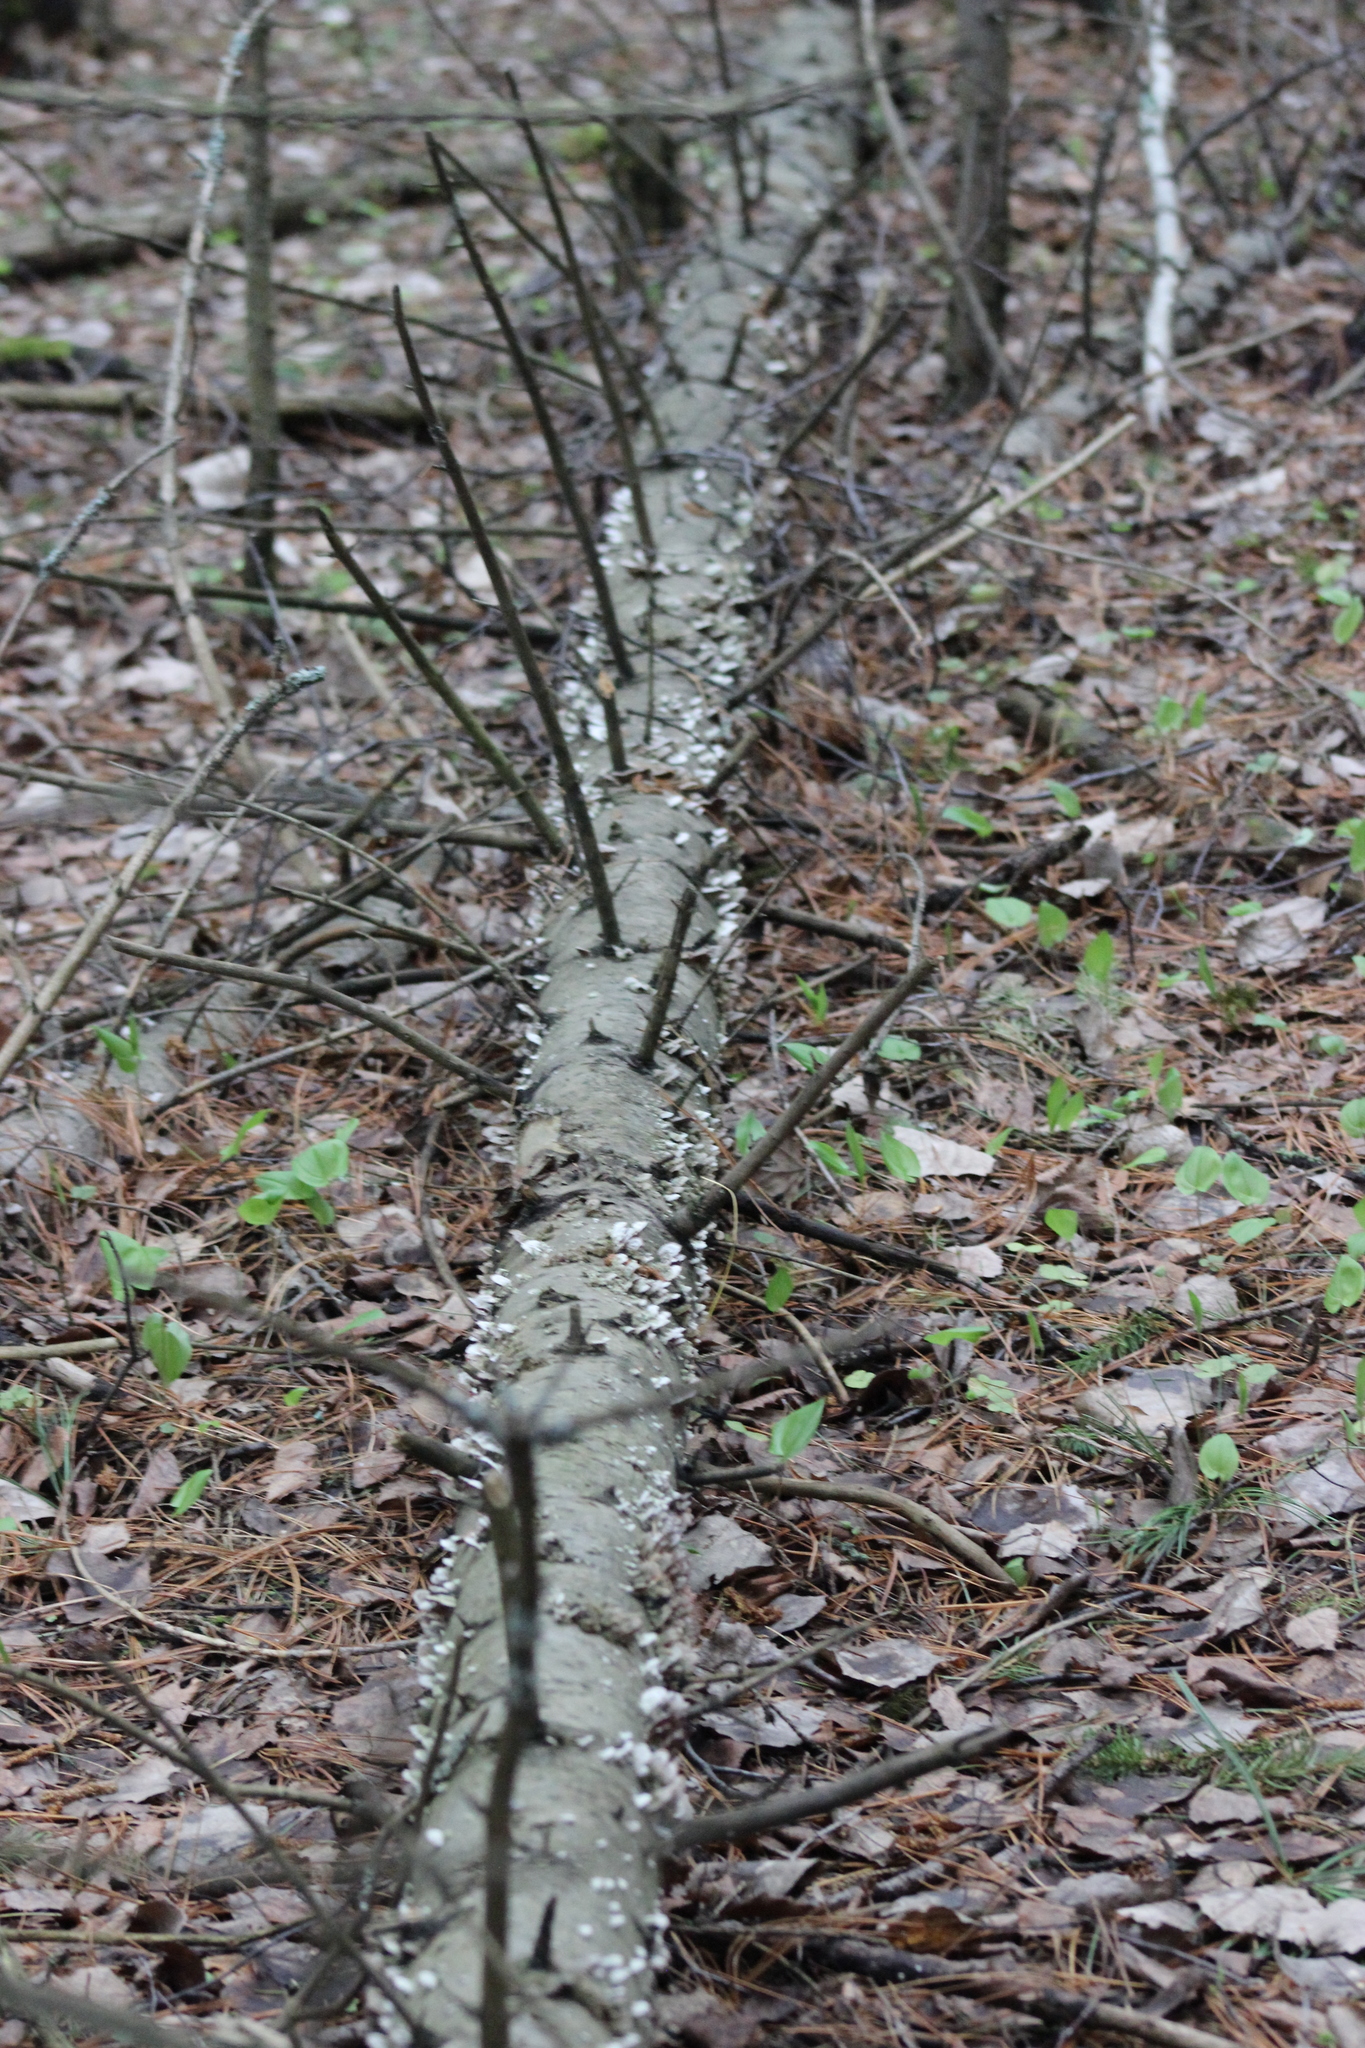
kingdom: Fungi
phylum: Basidiomycota
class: Agaricomycetes
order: Hymenochaetales
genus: Trichaptum
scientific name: Trichaptum fuscoviolaceum
